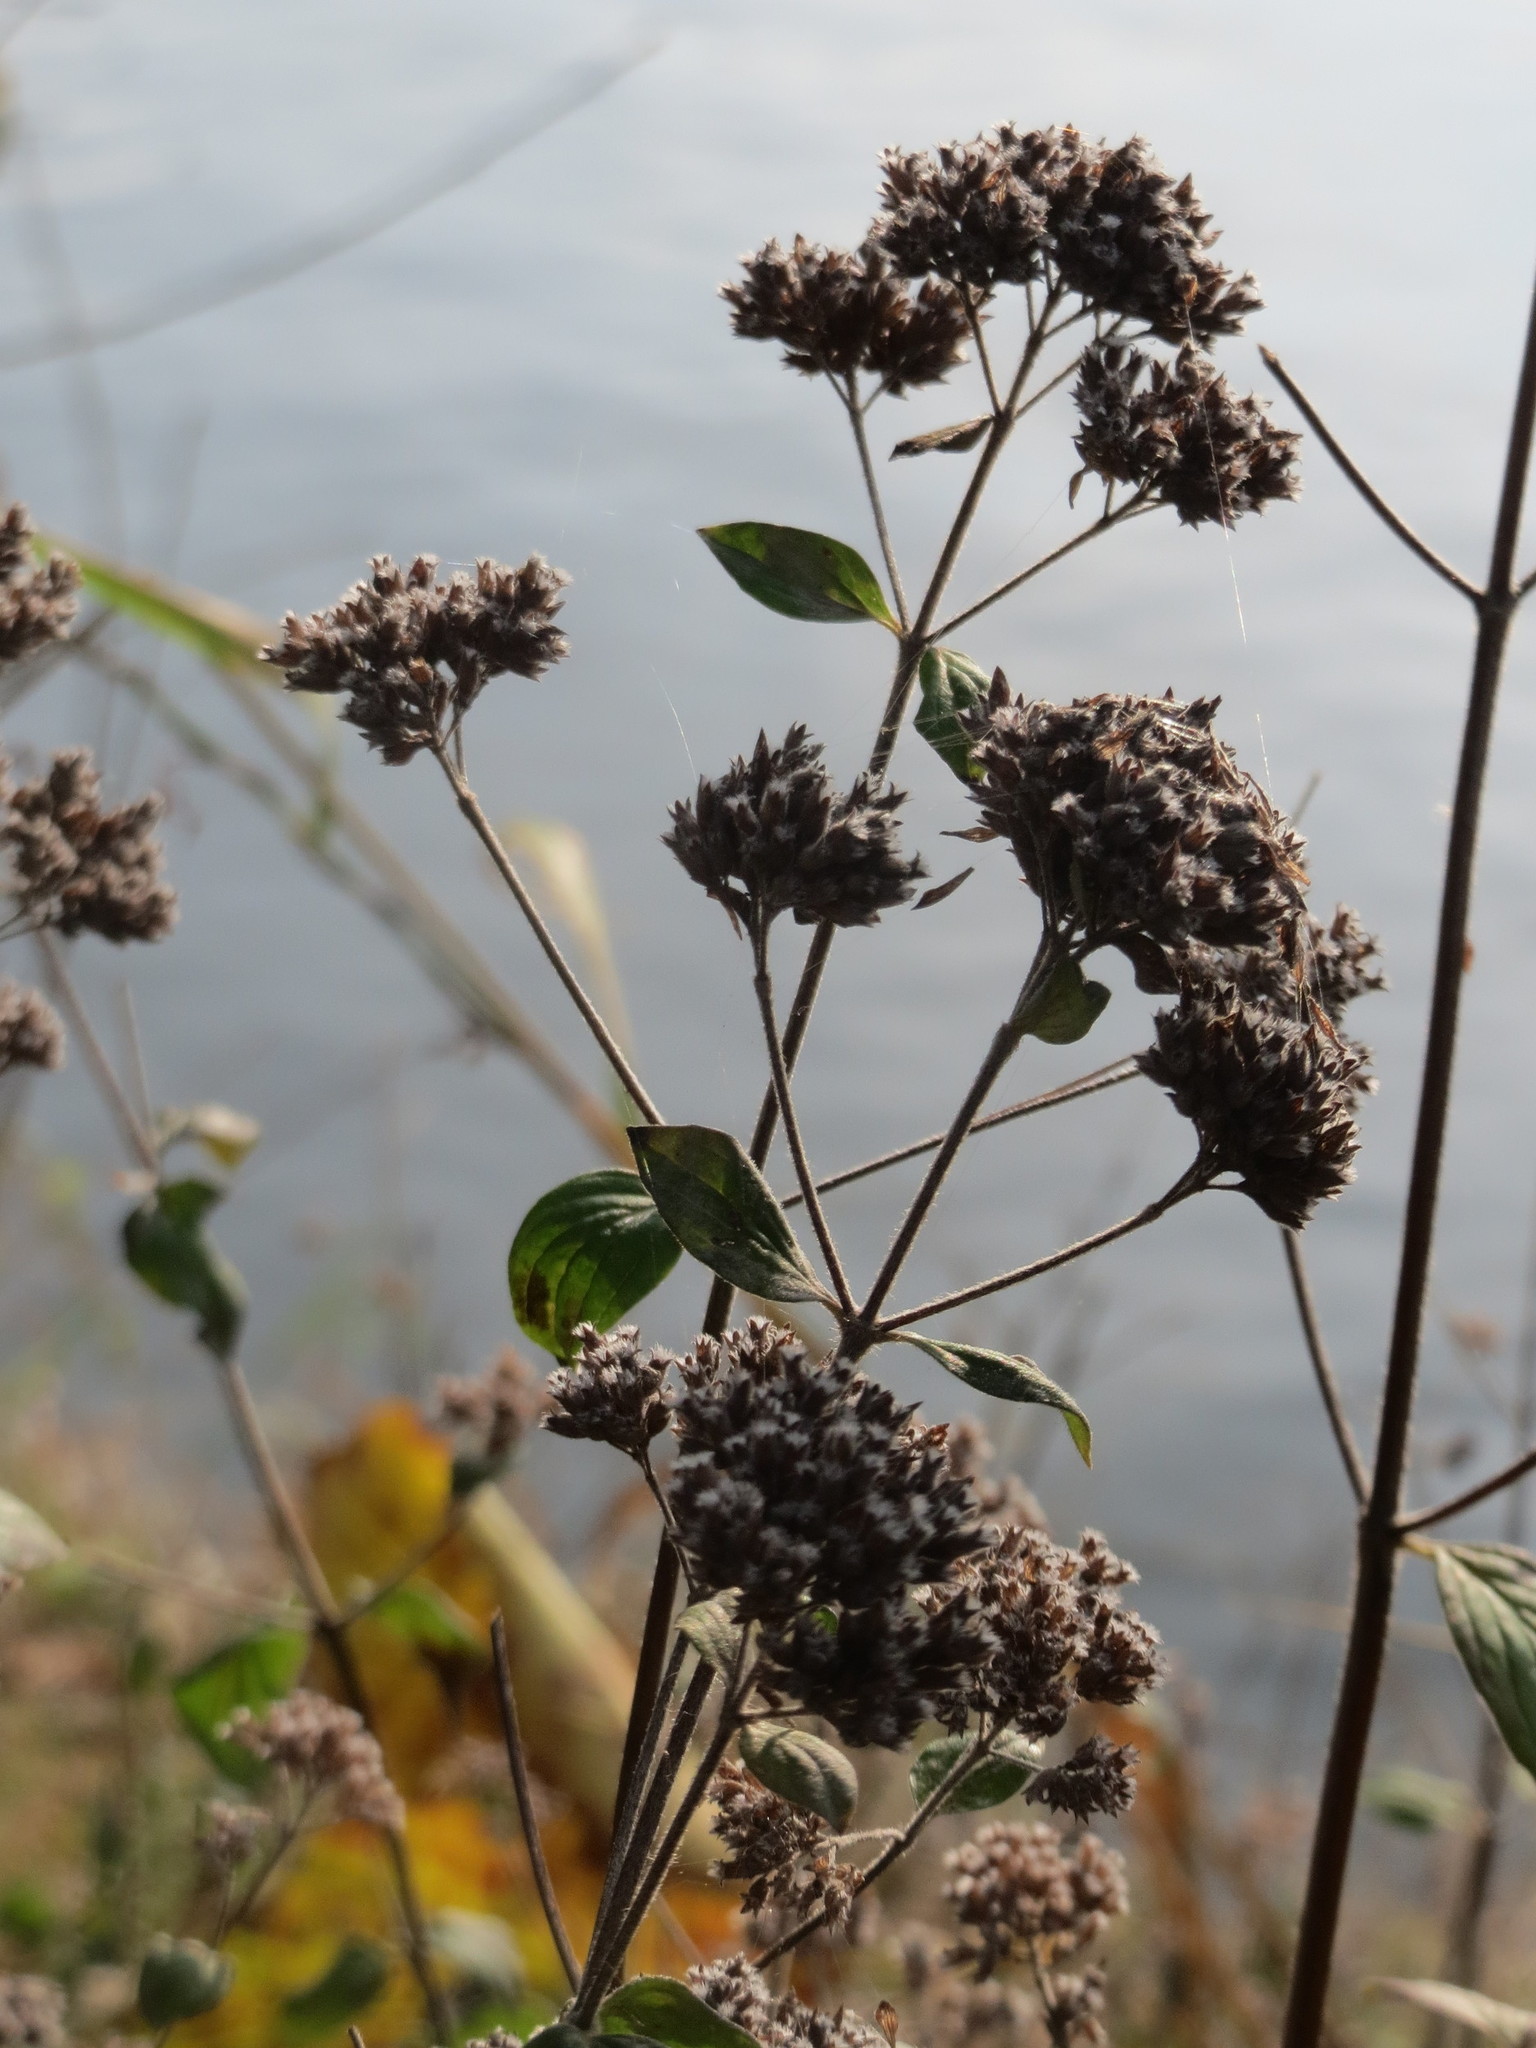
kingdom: Plantae
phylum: Tracheophyta
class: Magnoliopsida
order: Lamiales
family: Lamiaceae
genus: Origanum
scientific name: Origanum vulgare
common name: Wild marjoram
